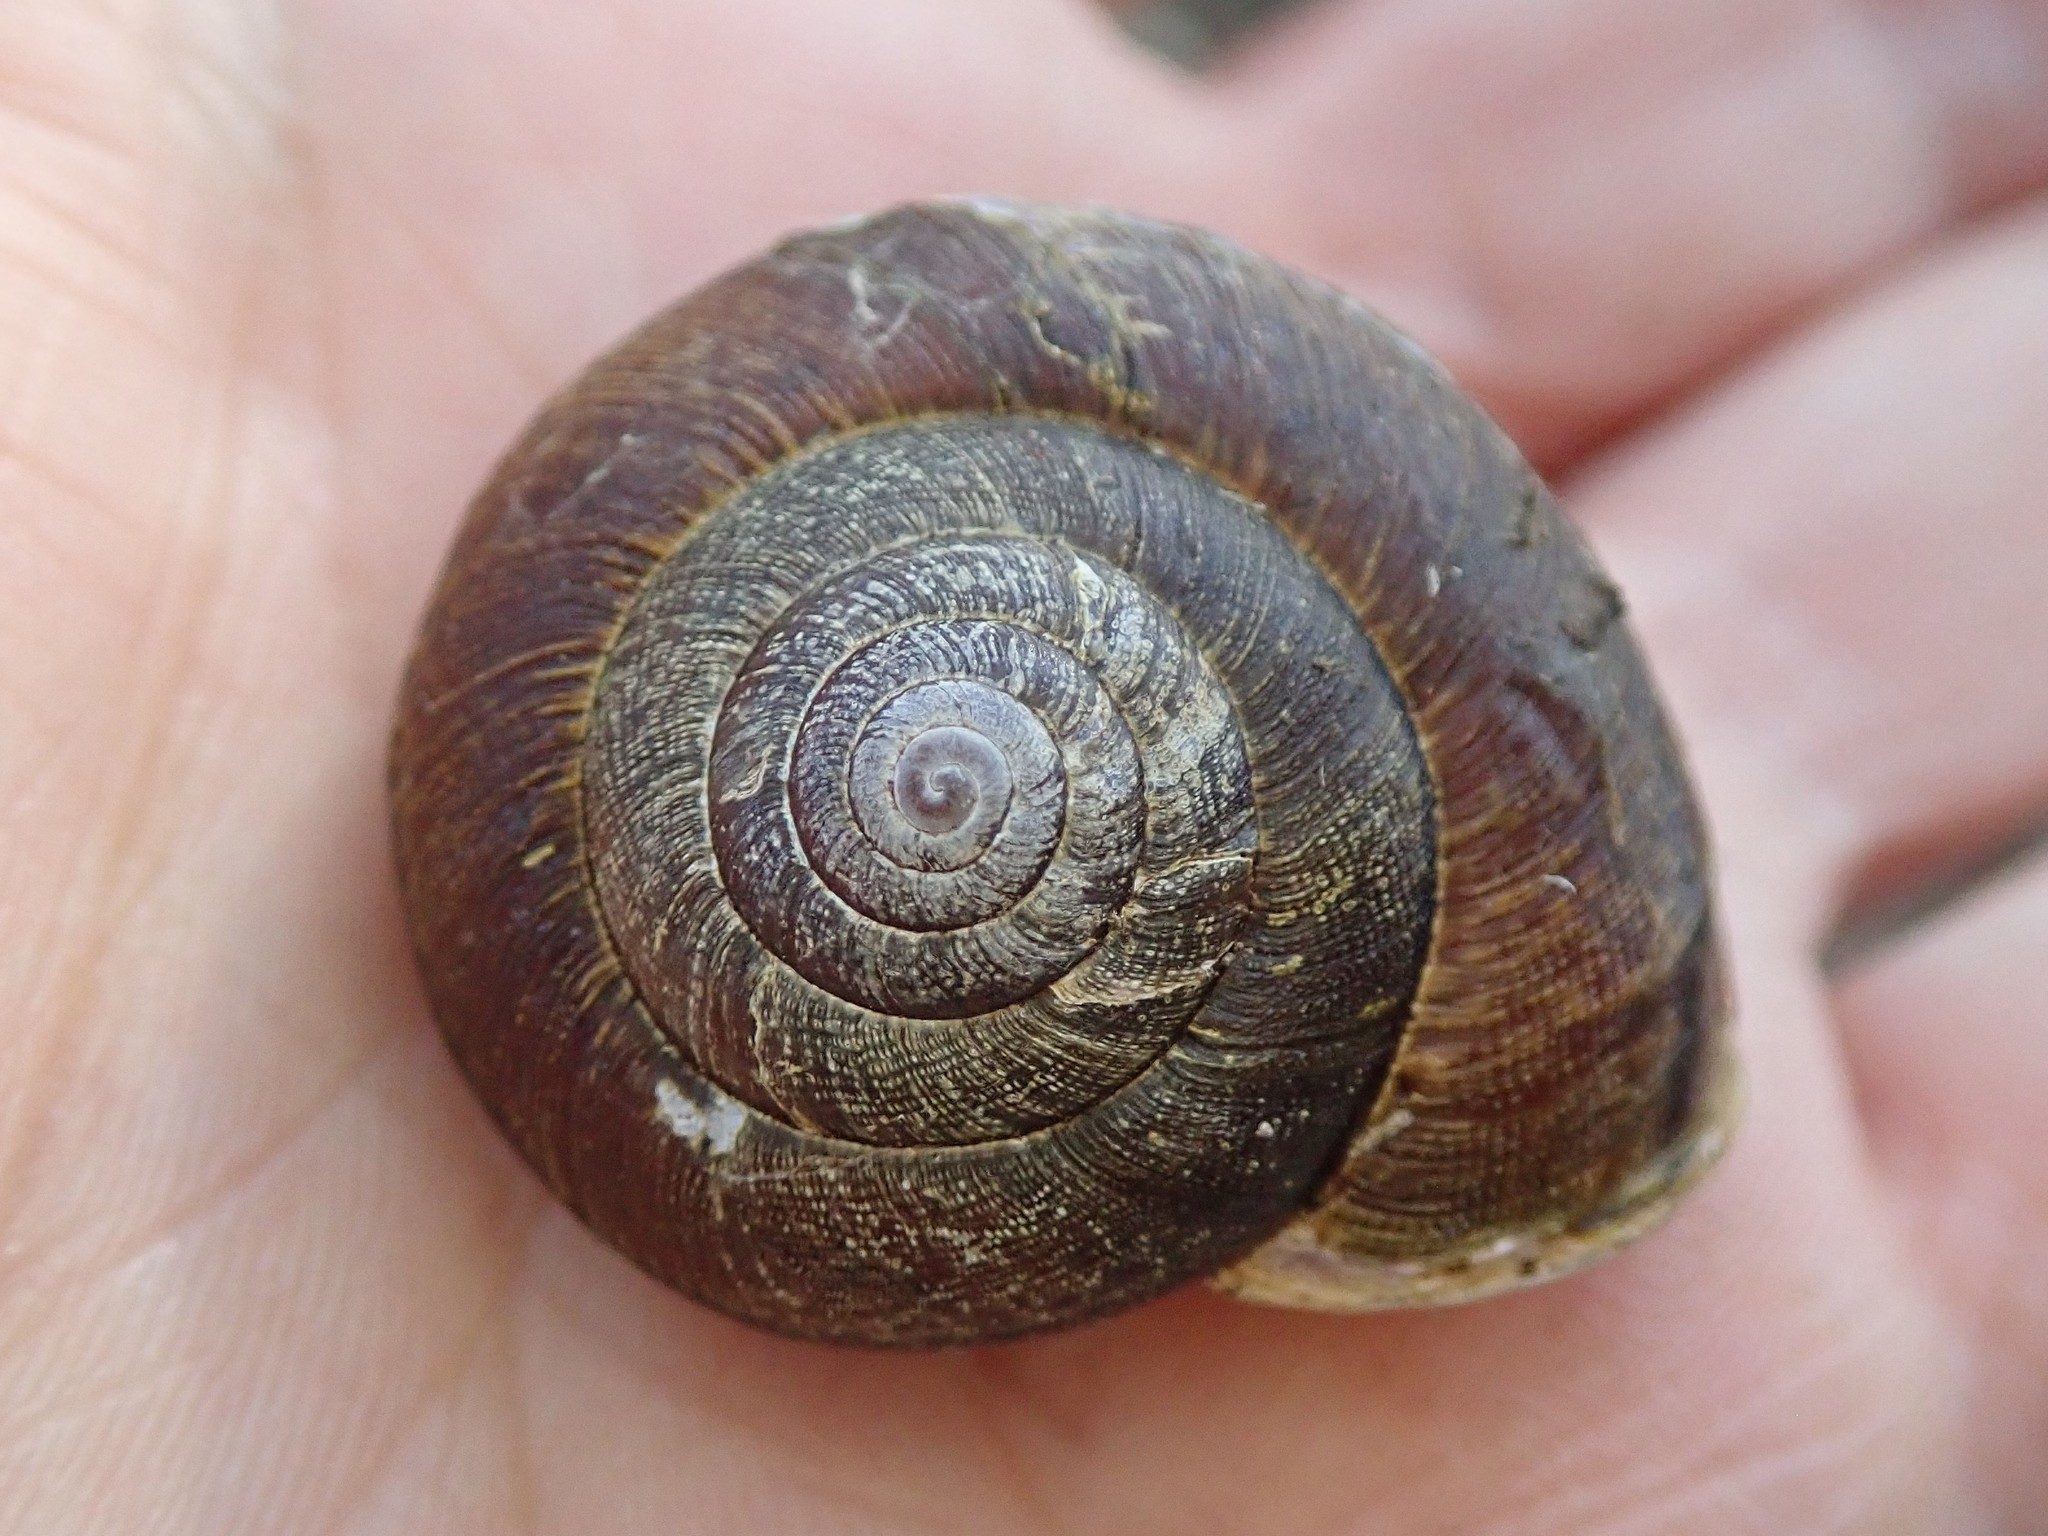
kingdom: Animalia
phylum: Mollusca
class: Gastropoda
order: Stylommatophora
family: Xanthonychidae
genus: Helminthoglypta
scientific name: Helminthoglypta arrosa
